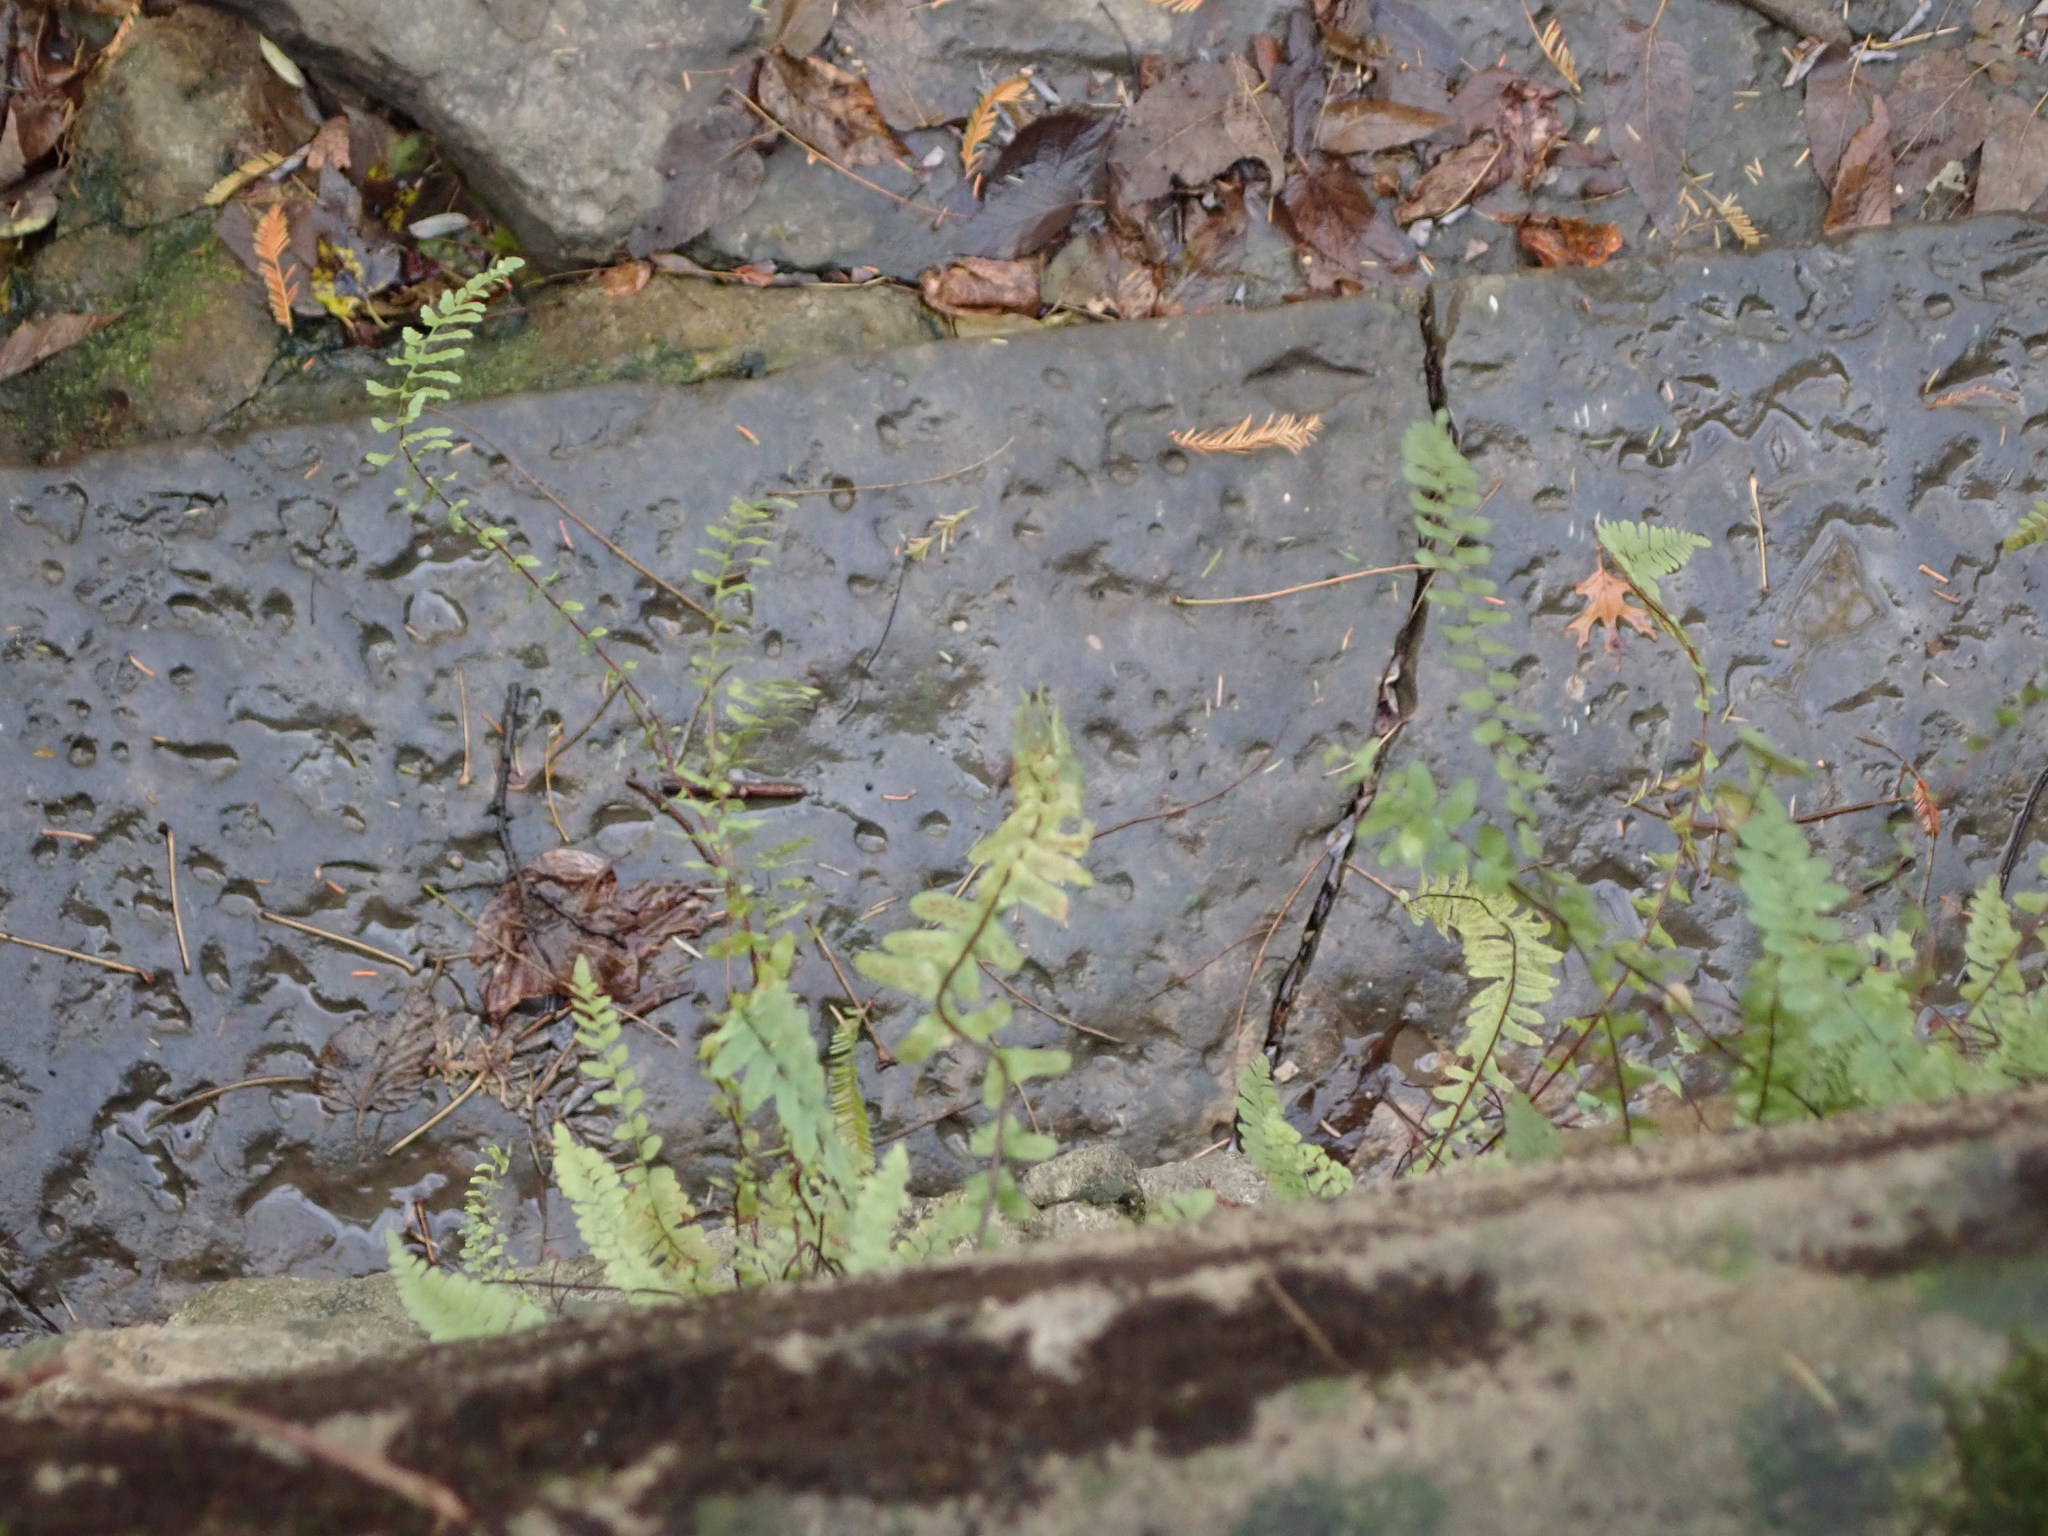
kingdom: Plantae
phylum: Tracheophyta
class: Polypodiopsida
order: Polypodiales
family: Aspleniaceae
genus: Asplenium
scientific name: Asplenium platyneuron
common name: Ebony spleenwort
